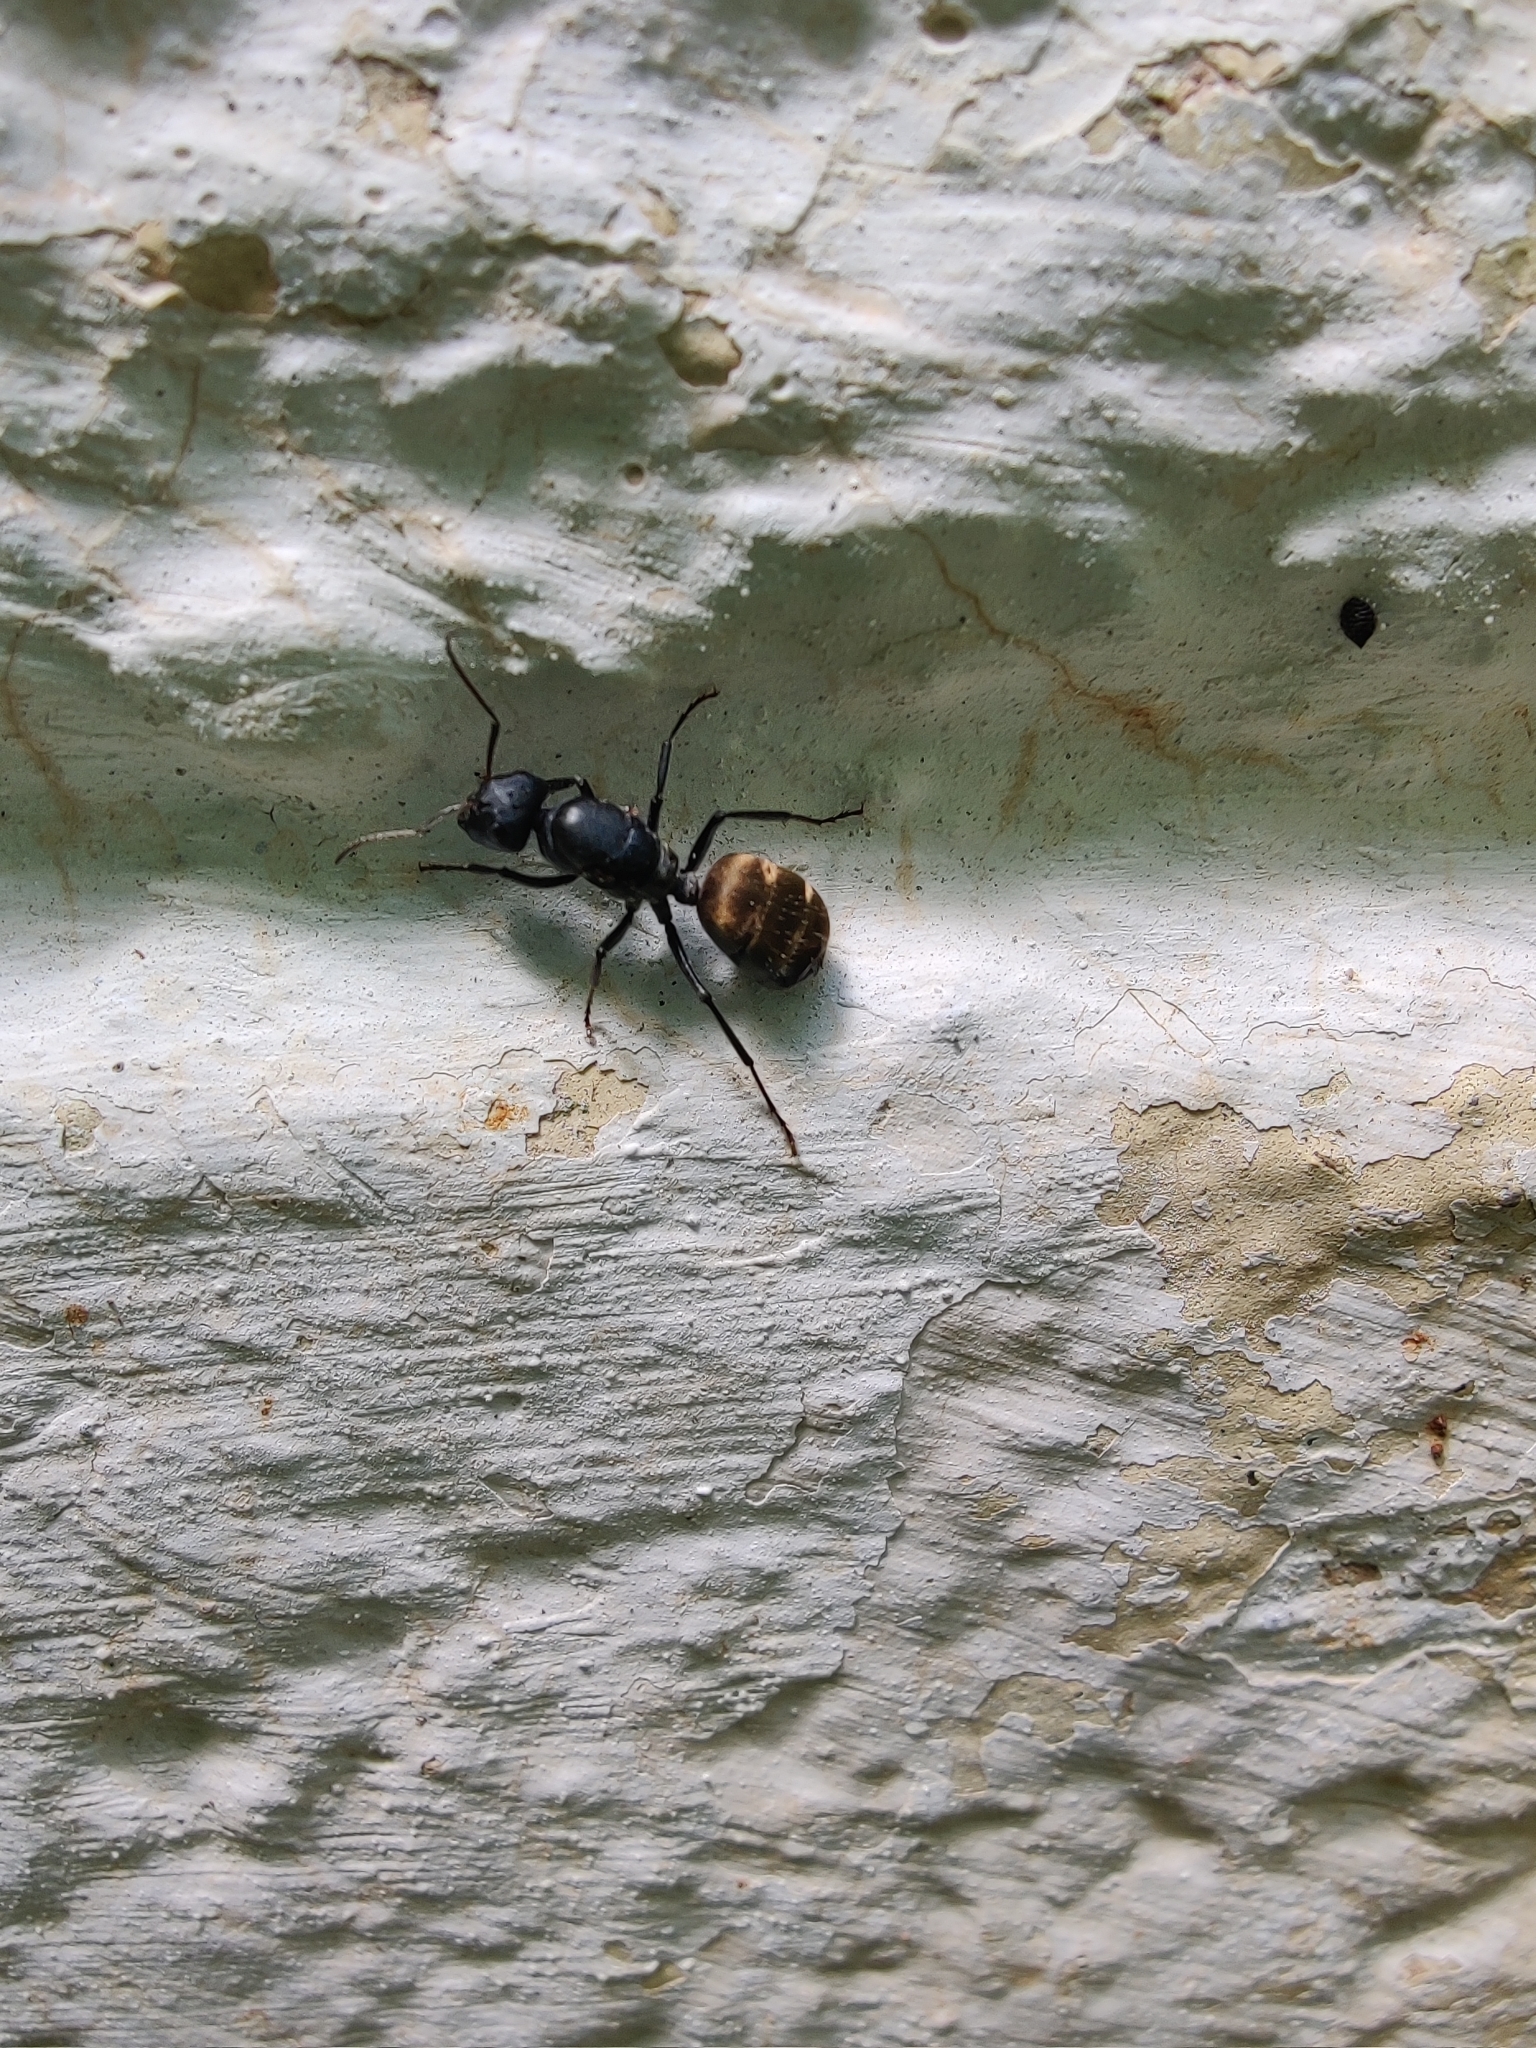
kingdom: Animalia
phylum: Arthropoda
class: Insecta
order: Hymenoptera
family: Formicidae
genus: Camponotus
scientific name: Camponotus sericeus
